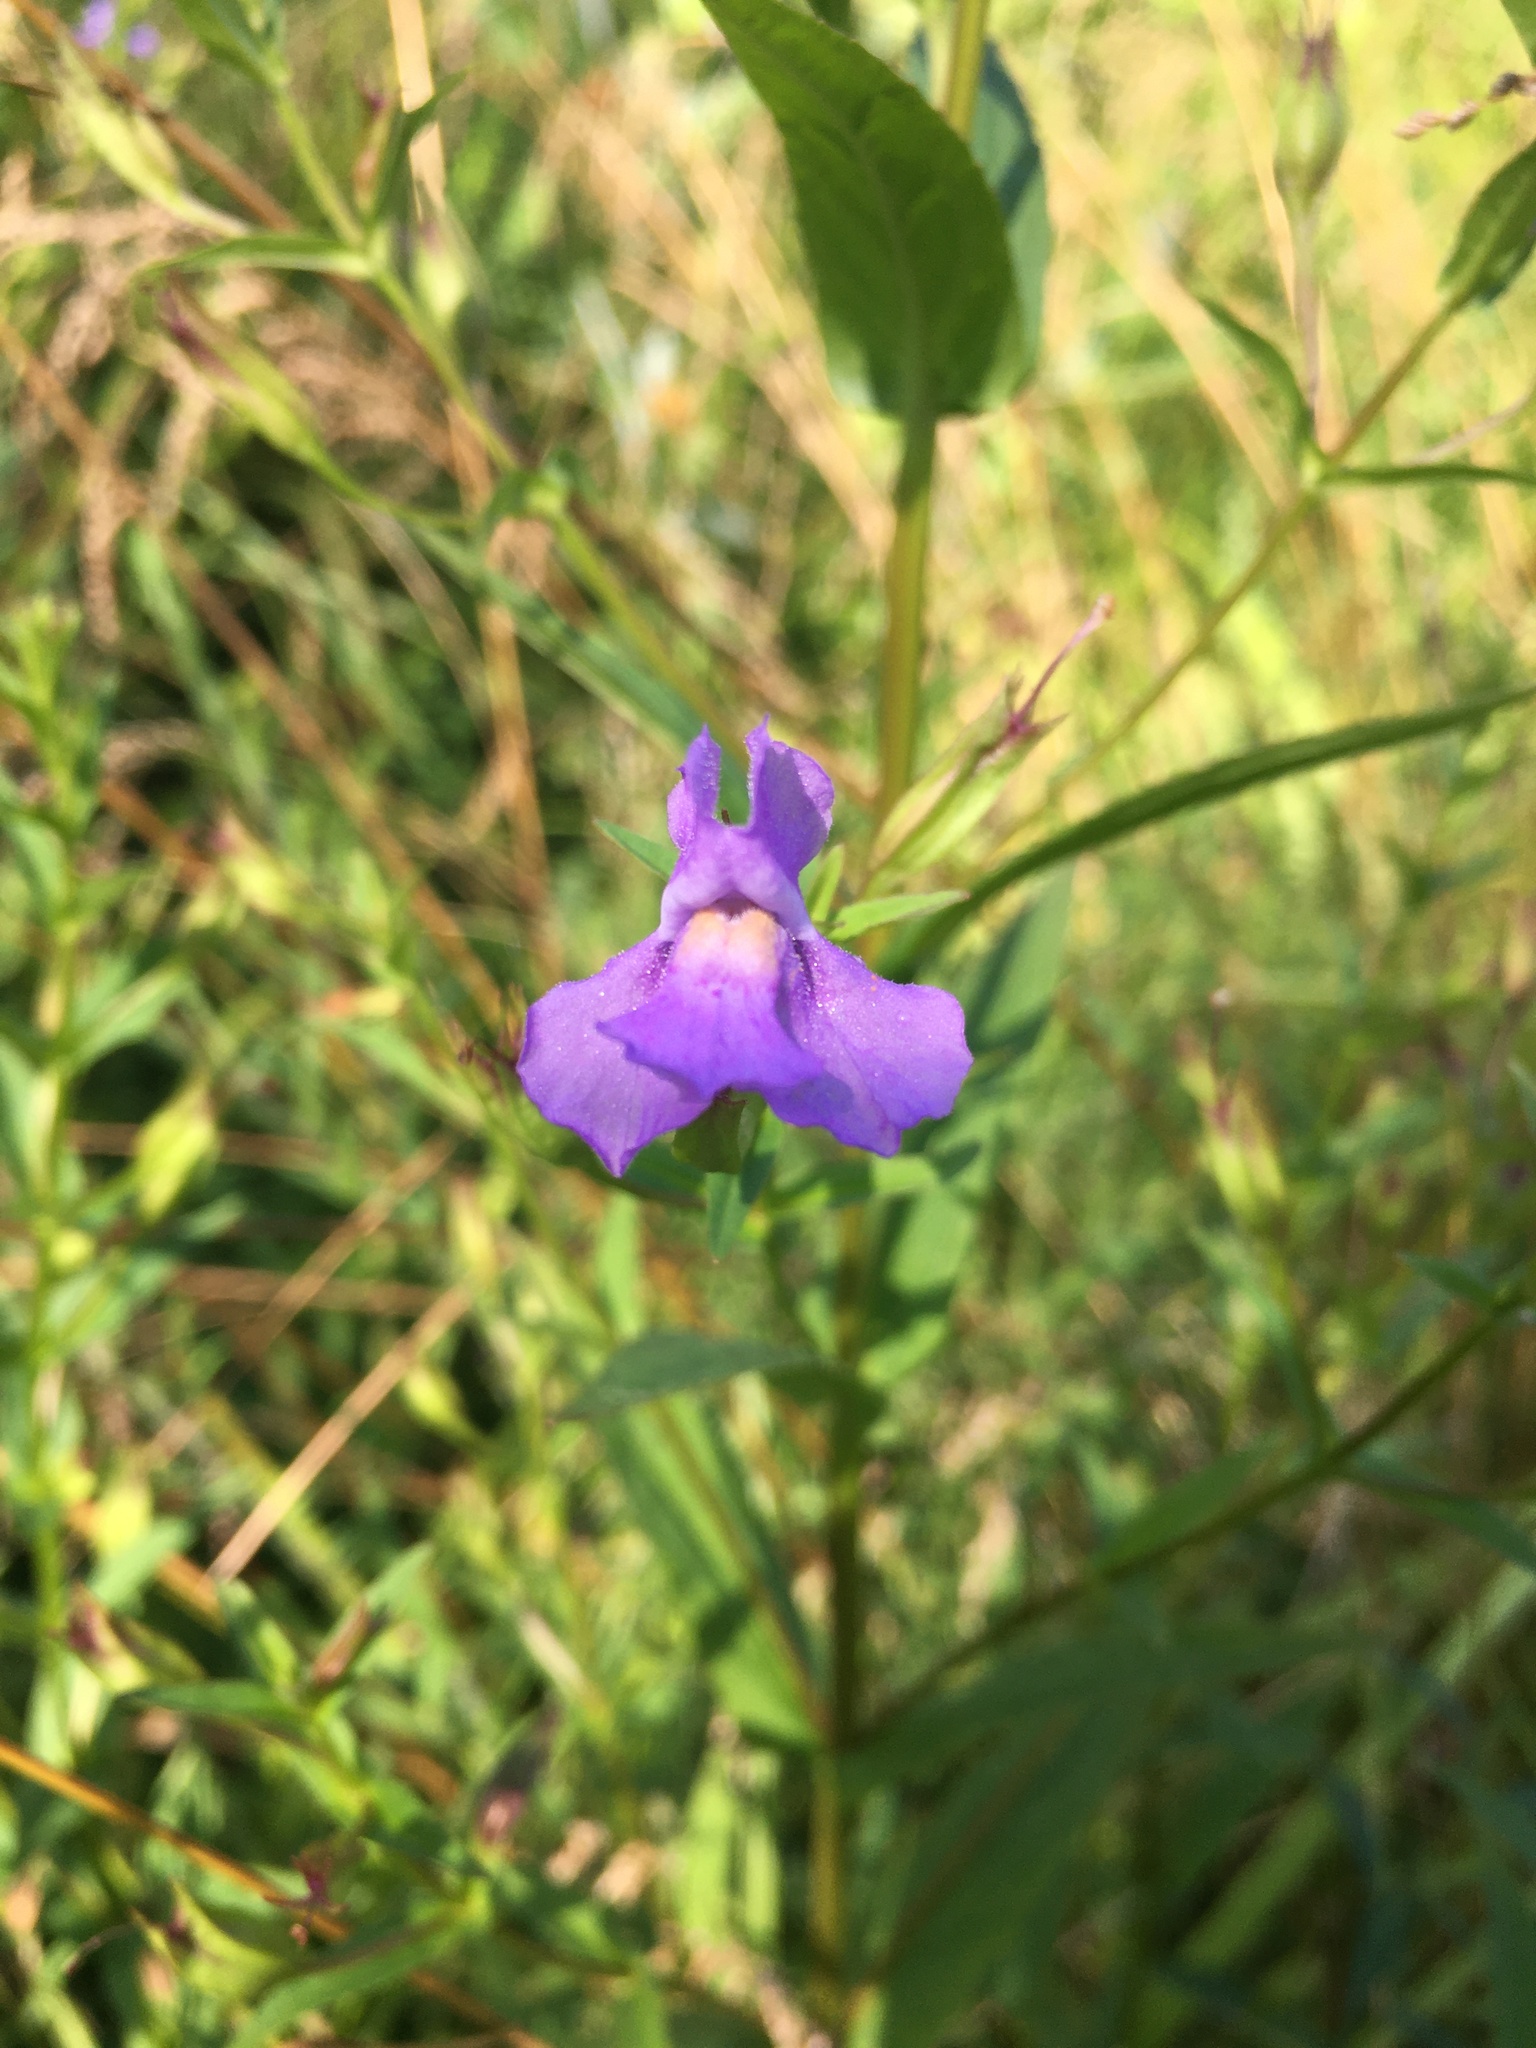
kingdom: Plantae
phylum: Tracheophyta
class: Magnoliopsida
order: Lamiales
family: Phrymaceae
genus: Mimulus
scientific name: Mimulus ringens
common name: Allegheny monkeyflower
